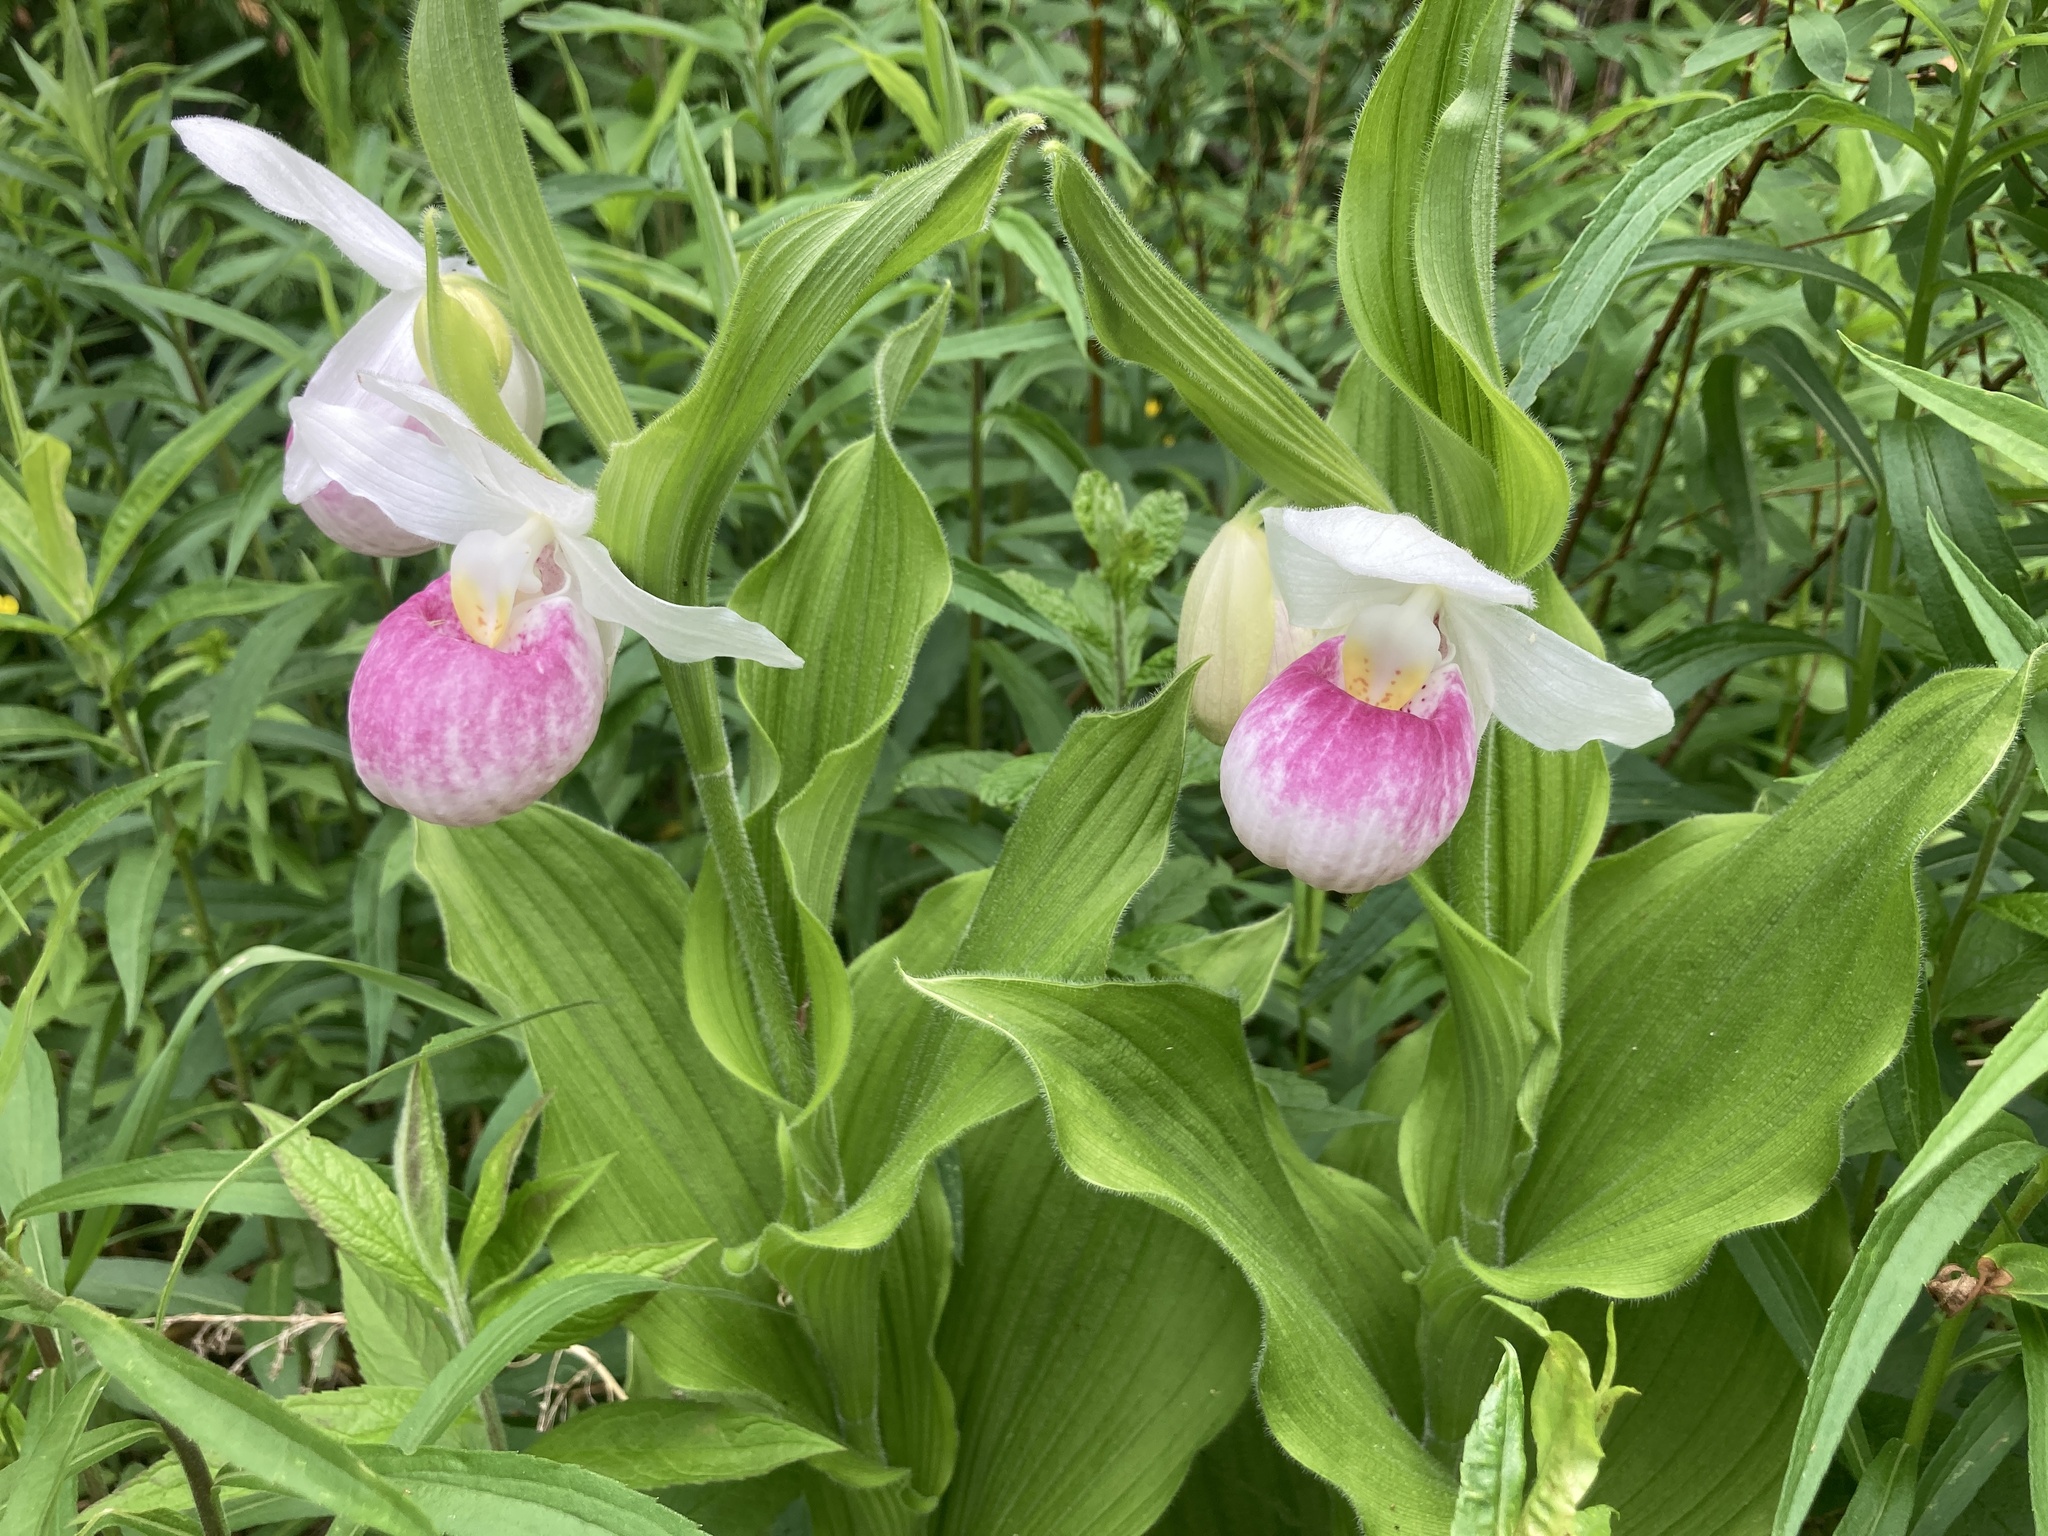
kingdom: Plantae
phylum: Tracheophyta
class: Liliopsida
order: Asparagales
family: Orchidaceae
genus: Cypripedium
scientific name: Cypripedium reginae
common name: Queen lady's-slipper
